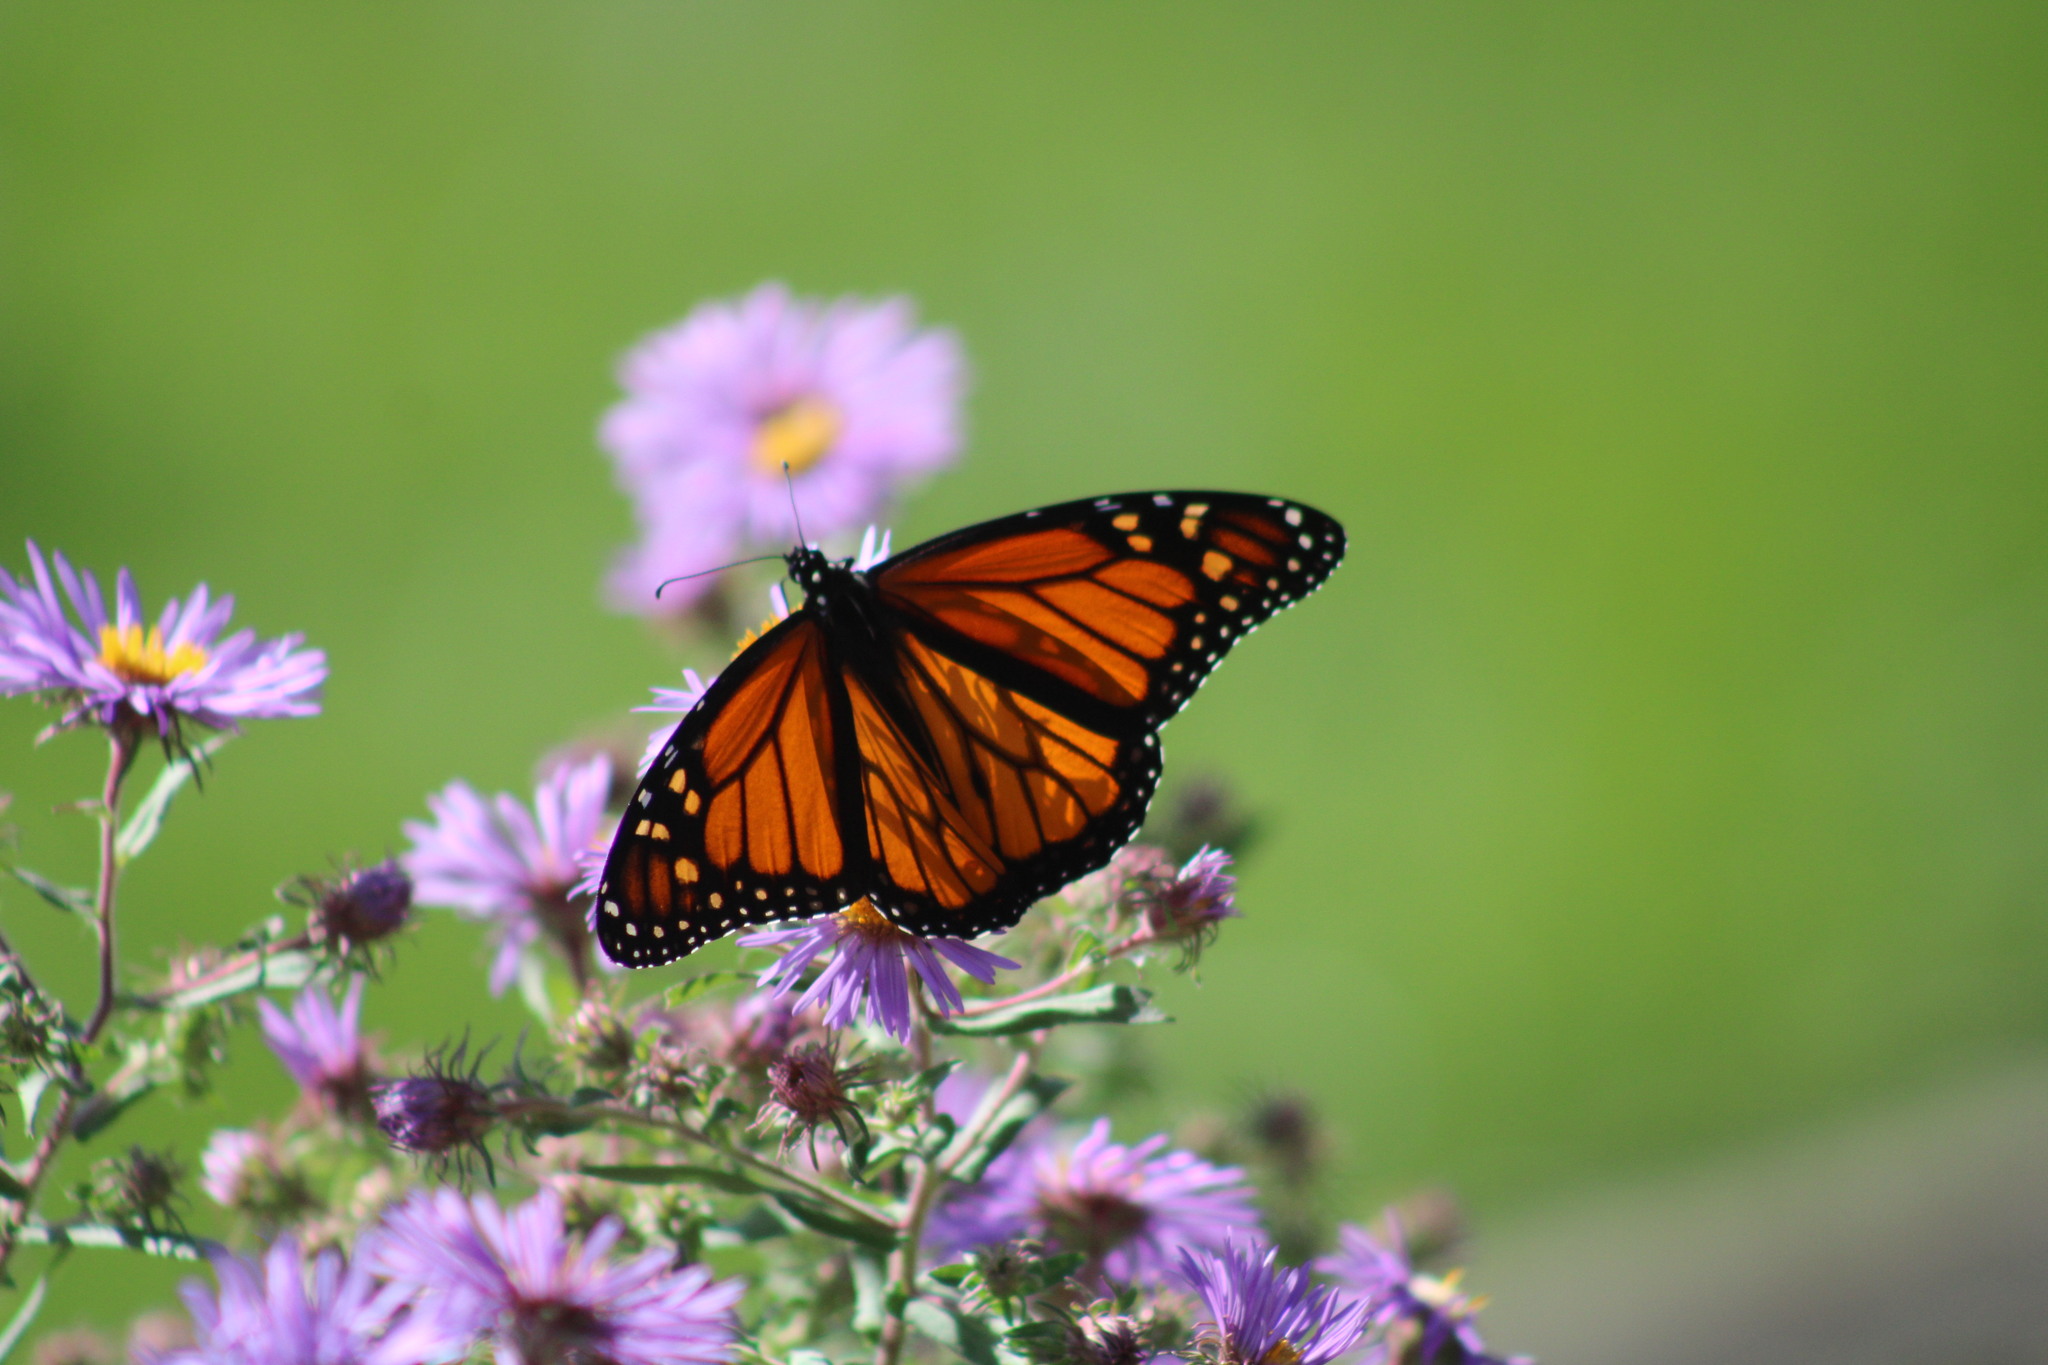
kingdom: Animalia
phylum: Arthropoda
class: Insecta
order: Lepidoptera
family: Nymphalidae
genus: Danaus
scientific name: Danaus plexippus
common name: Monarch
